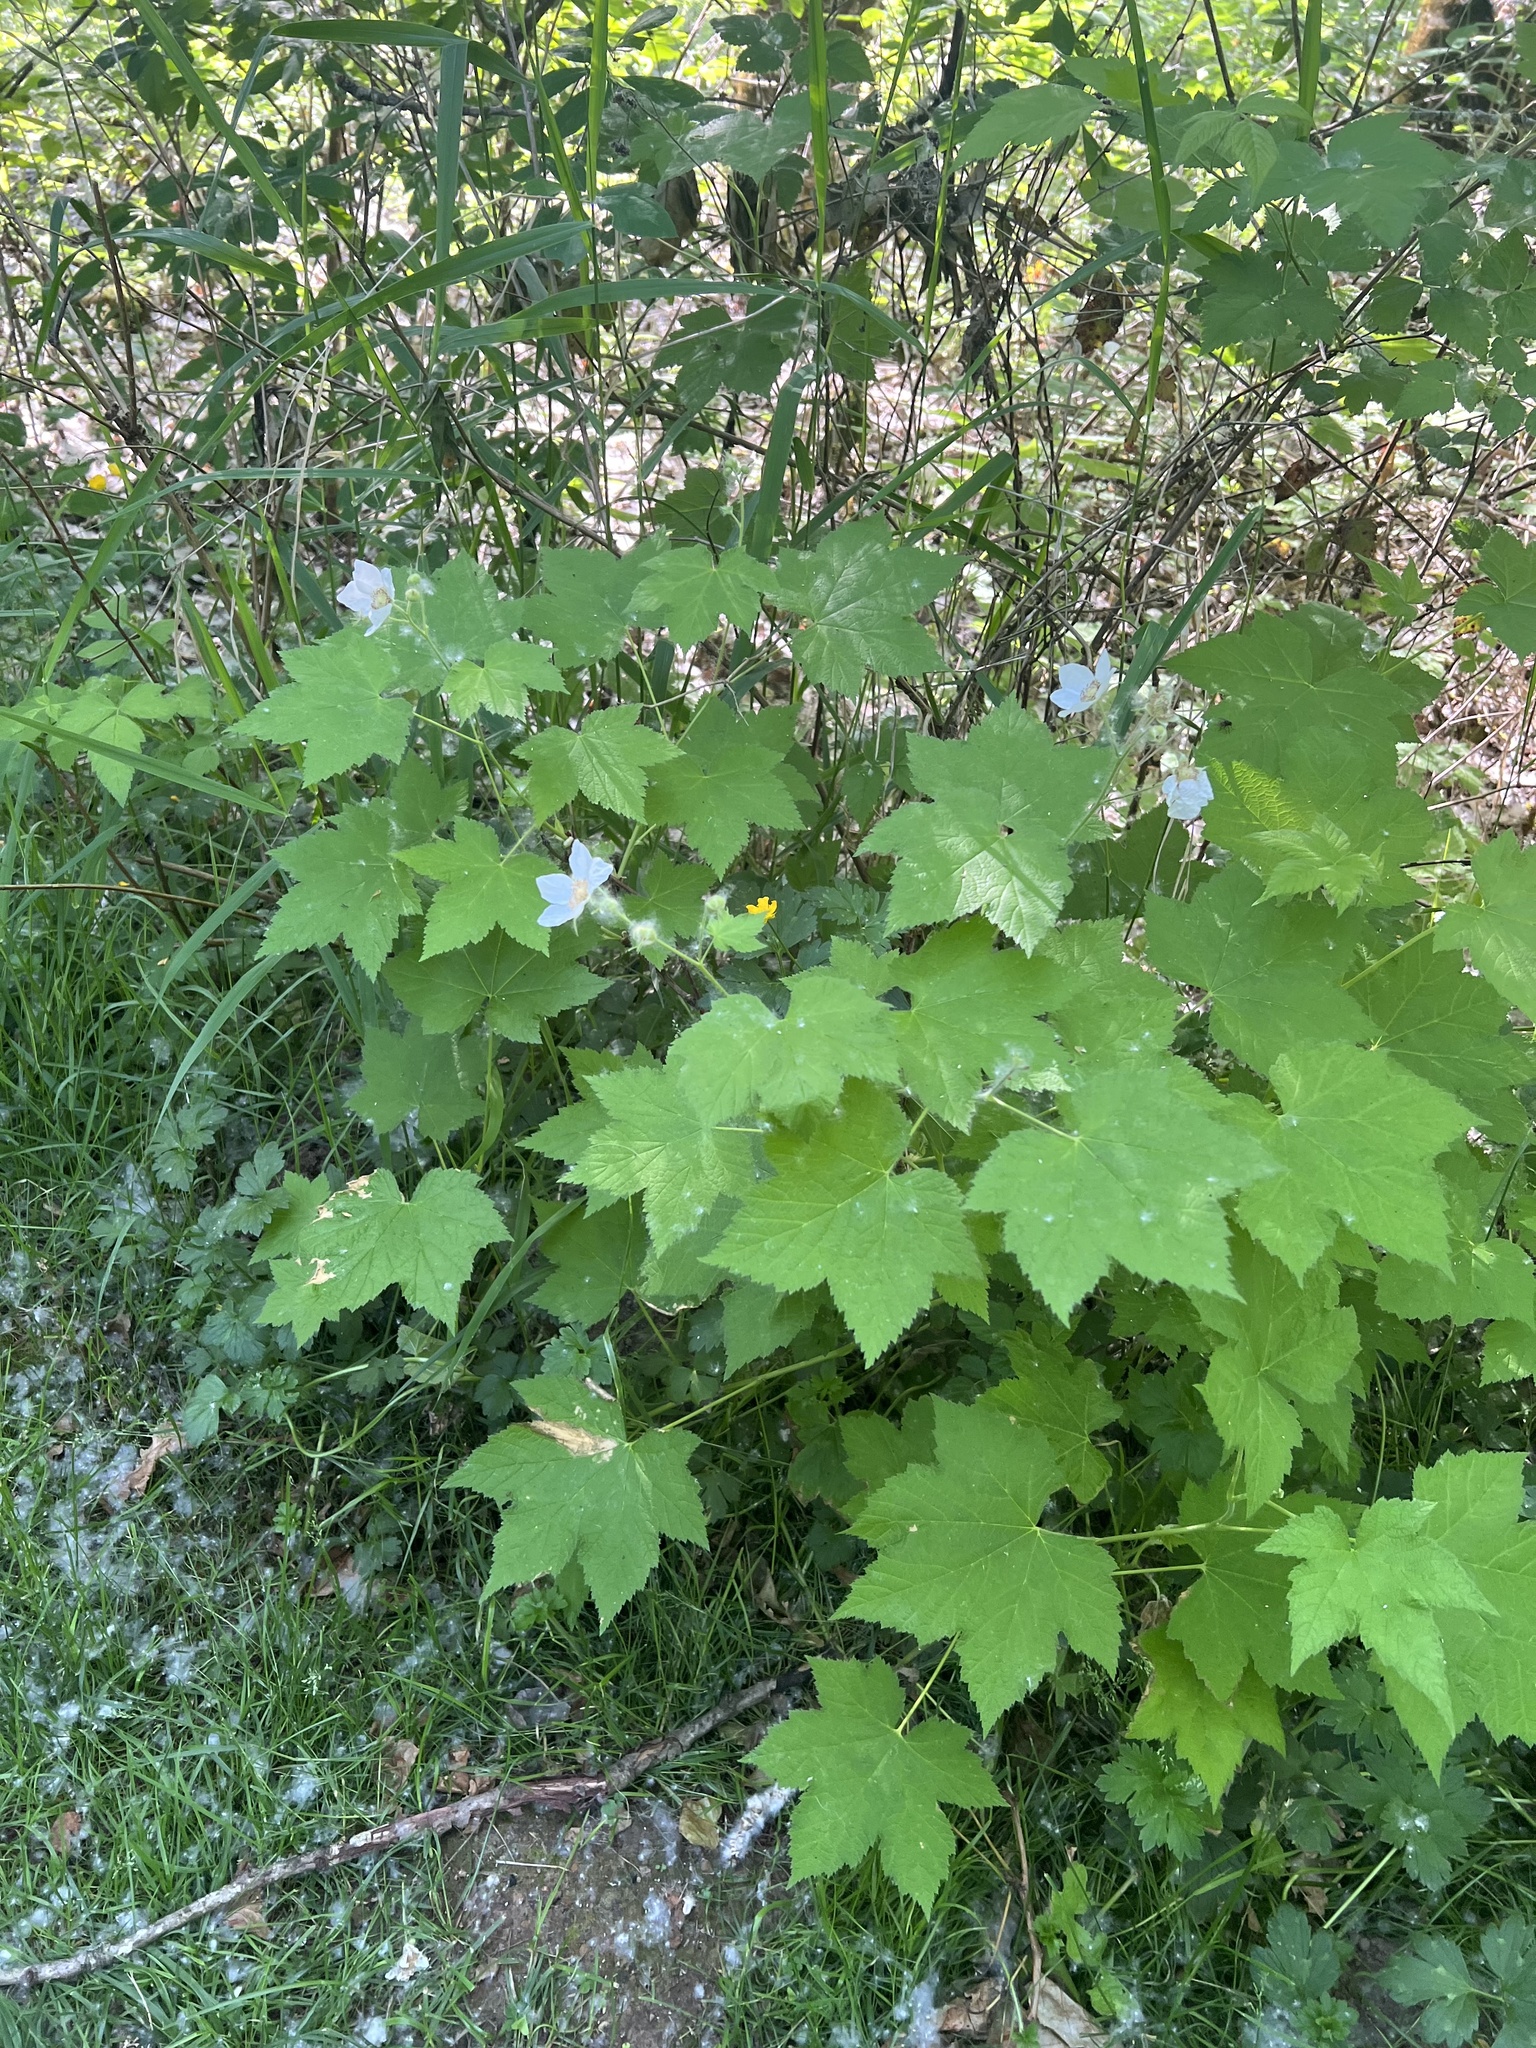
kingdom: Plantae
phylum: Tracheophyta
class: Magnoliopsida
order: Rosales
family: Rosaceae
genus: Rubus
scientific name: Rubus parviflorus
